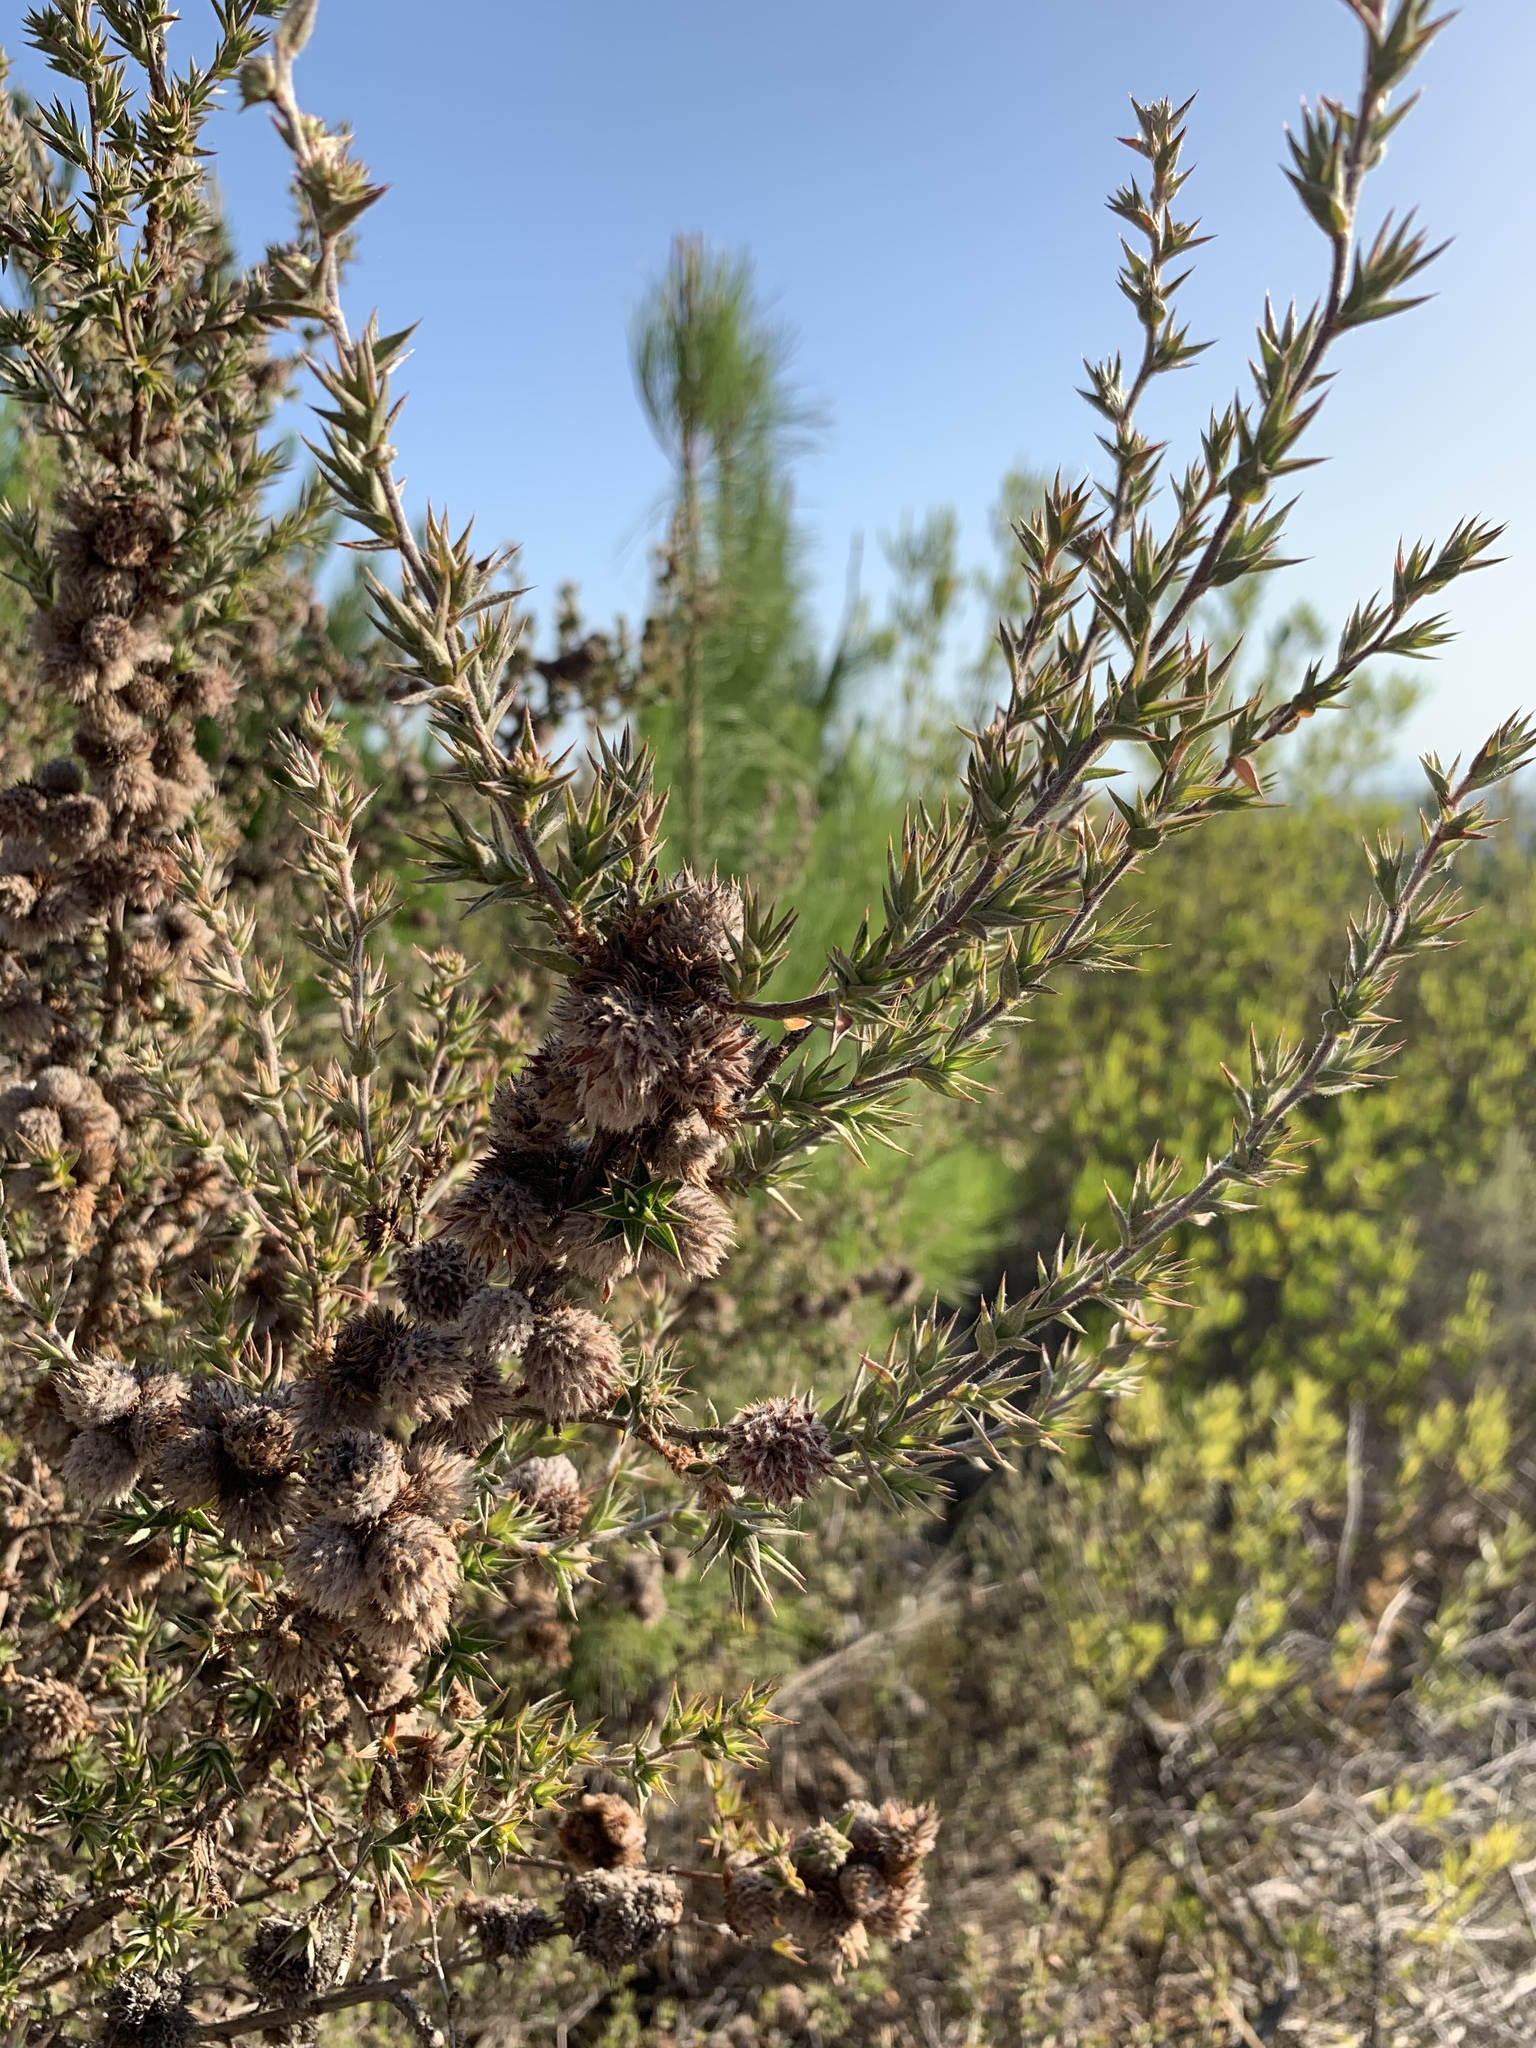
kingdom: Plantae
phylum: Tracheophyta
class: Magnoliopsida
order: Rosales
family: Rosaceae
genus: Cliffortia
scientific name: Cliffortia ruscifolia
